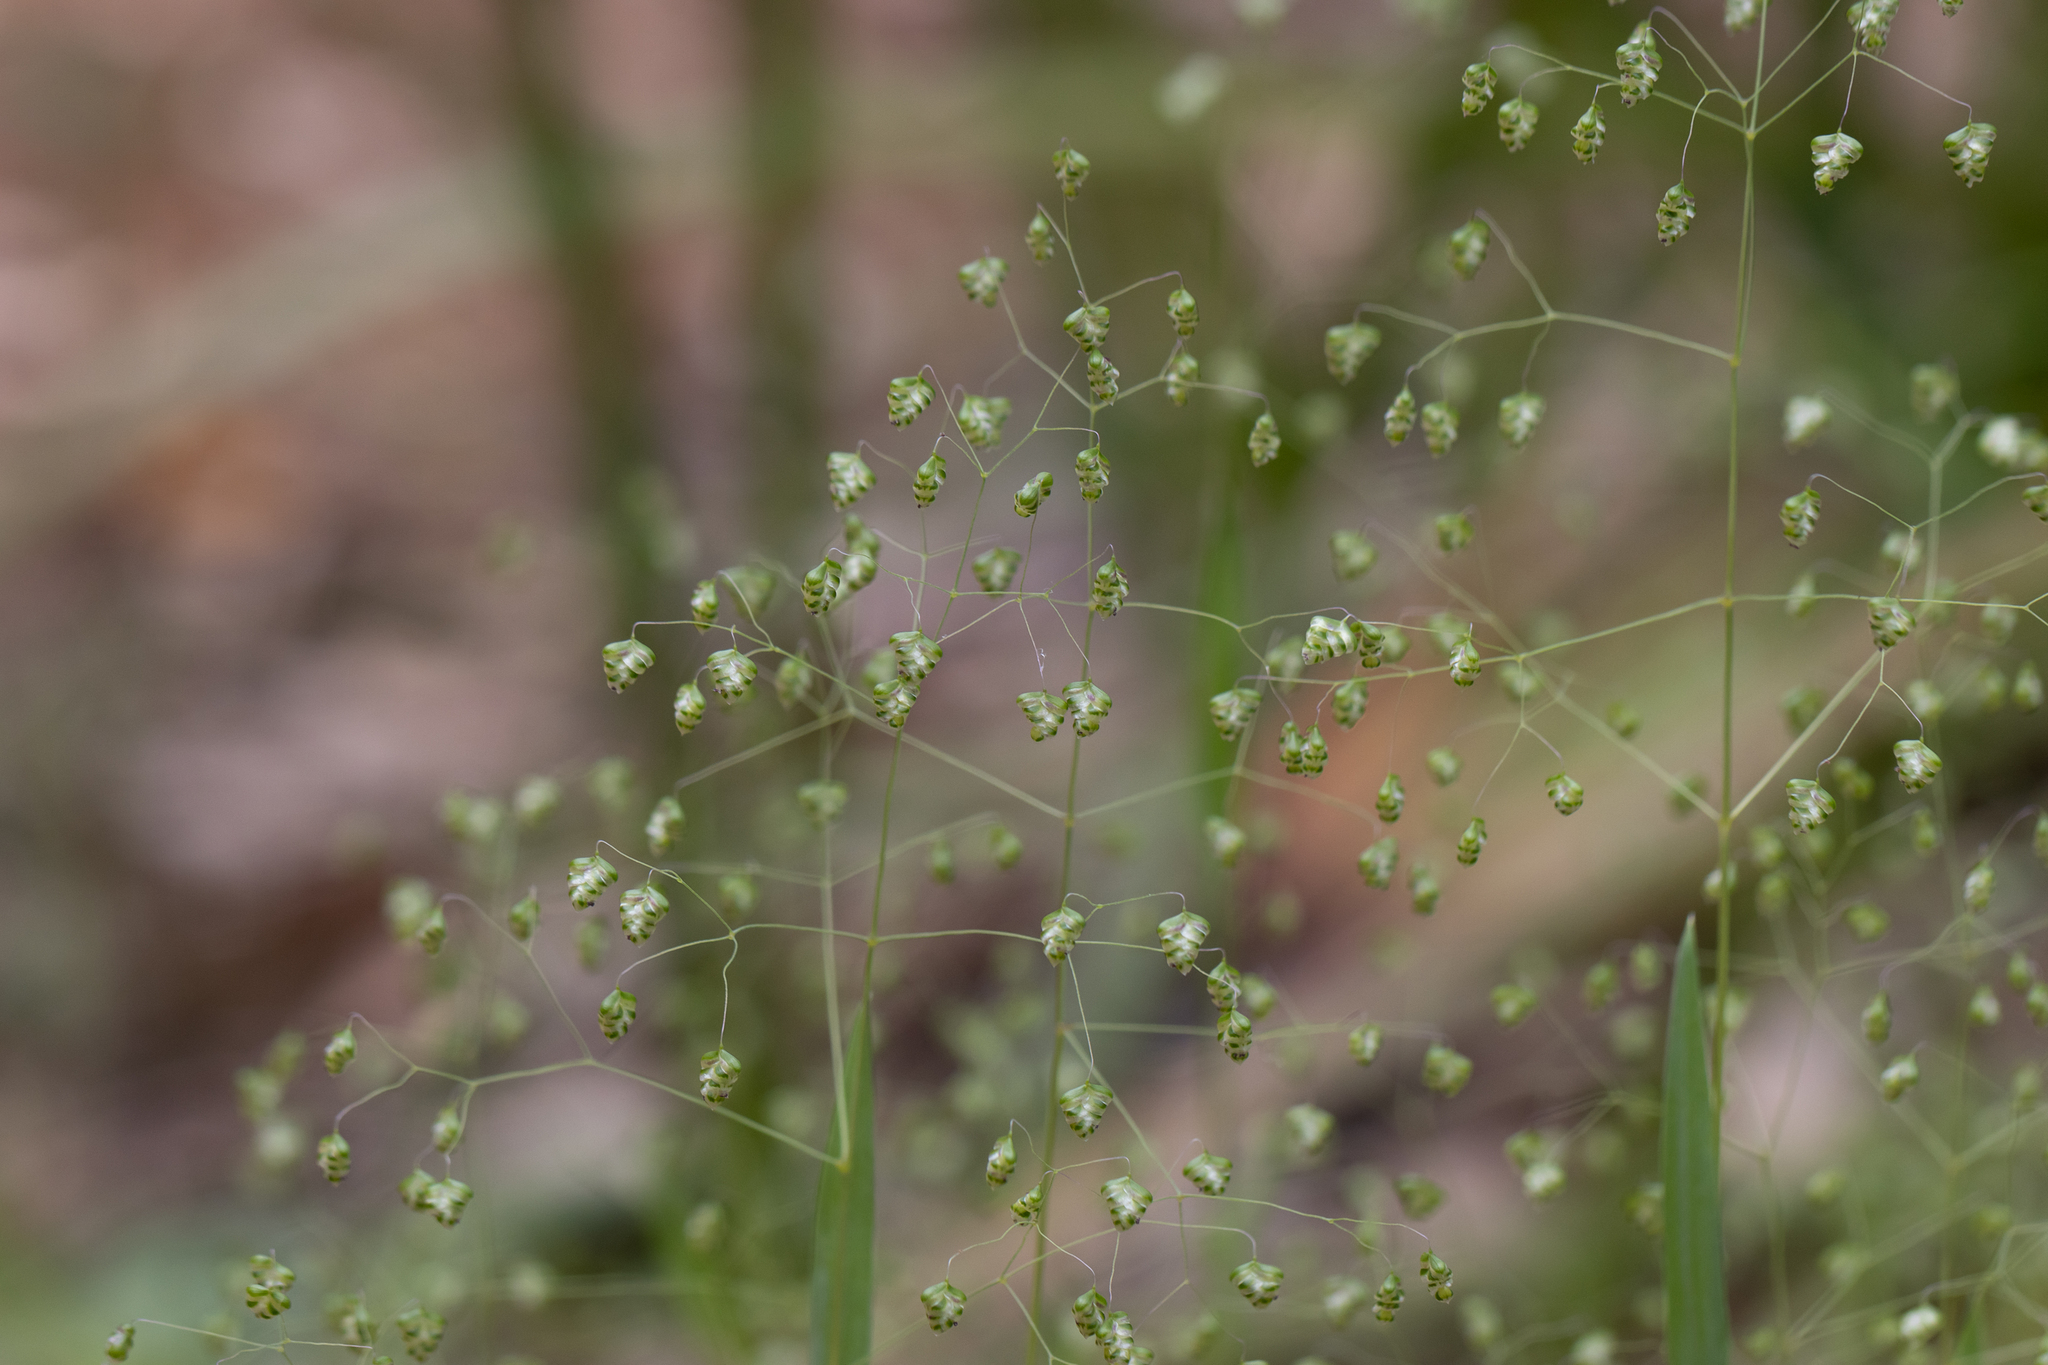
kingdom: Plantae
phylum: Tracheophyta
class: Liliopsida
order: Poales
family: Poaceae
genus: Briza
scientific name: Briza minor
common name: Lesser quaking-grass
